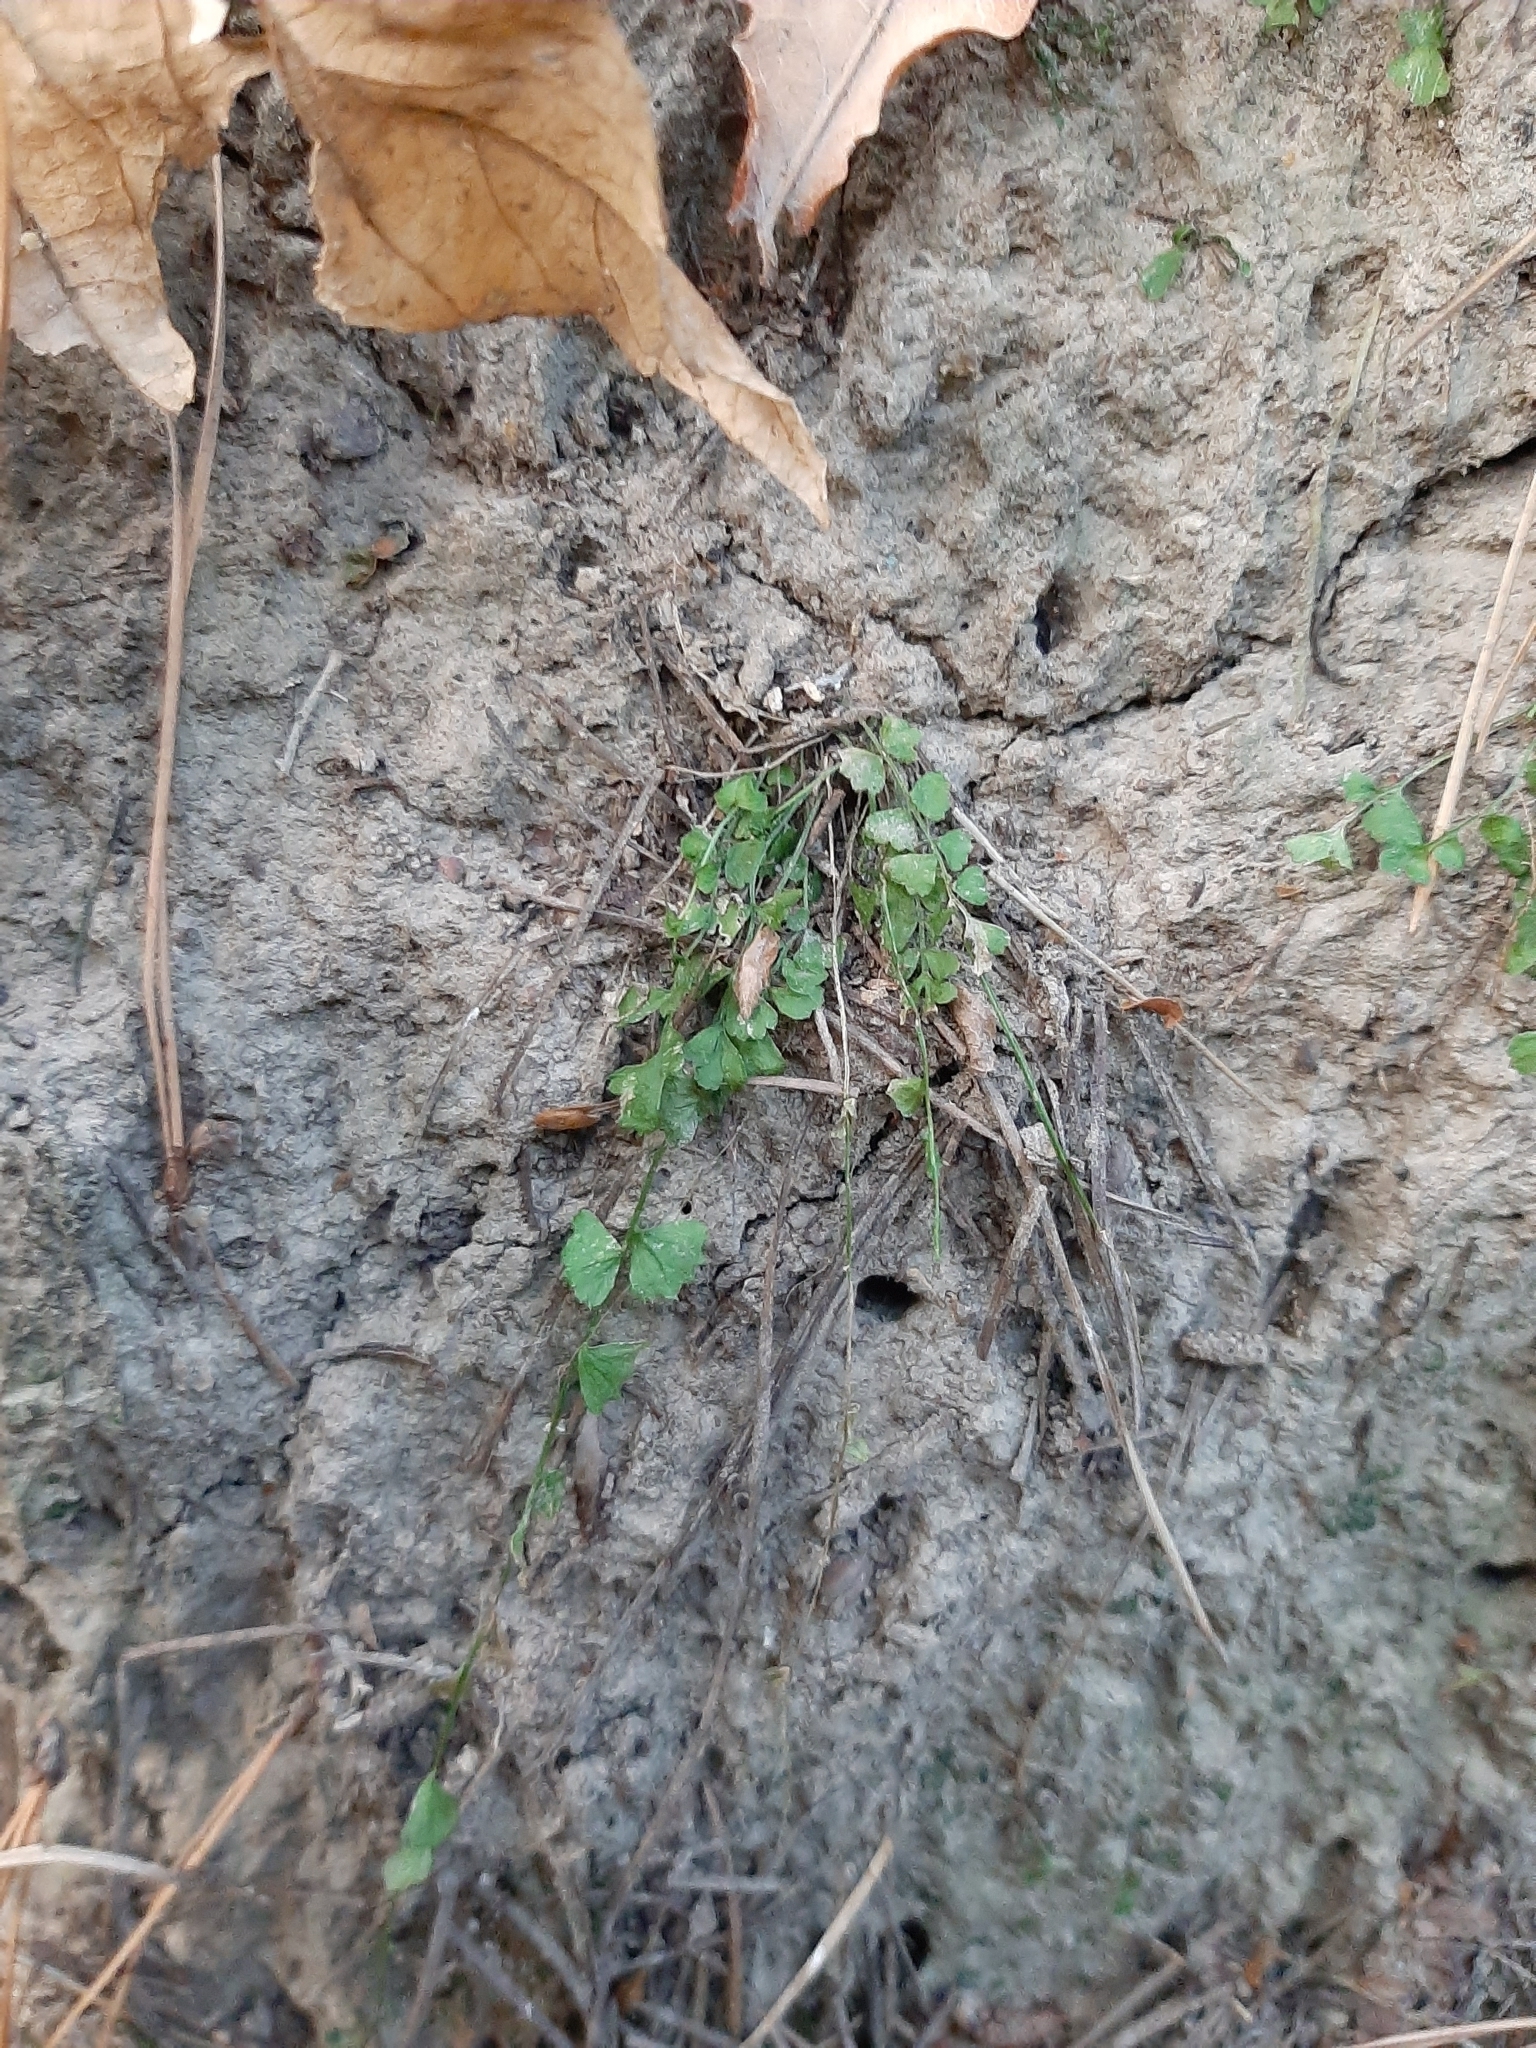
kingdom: Plantae
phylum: Tracheophyta
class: Polypodiopsida
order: Polypodiales
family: Aspleniaceae
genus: Asplenium
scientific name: Asplenium flabellifolium
